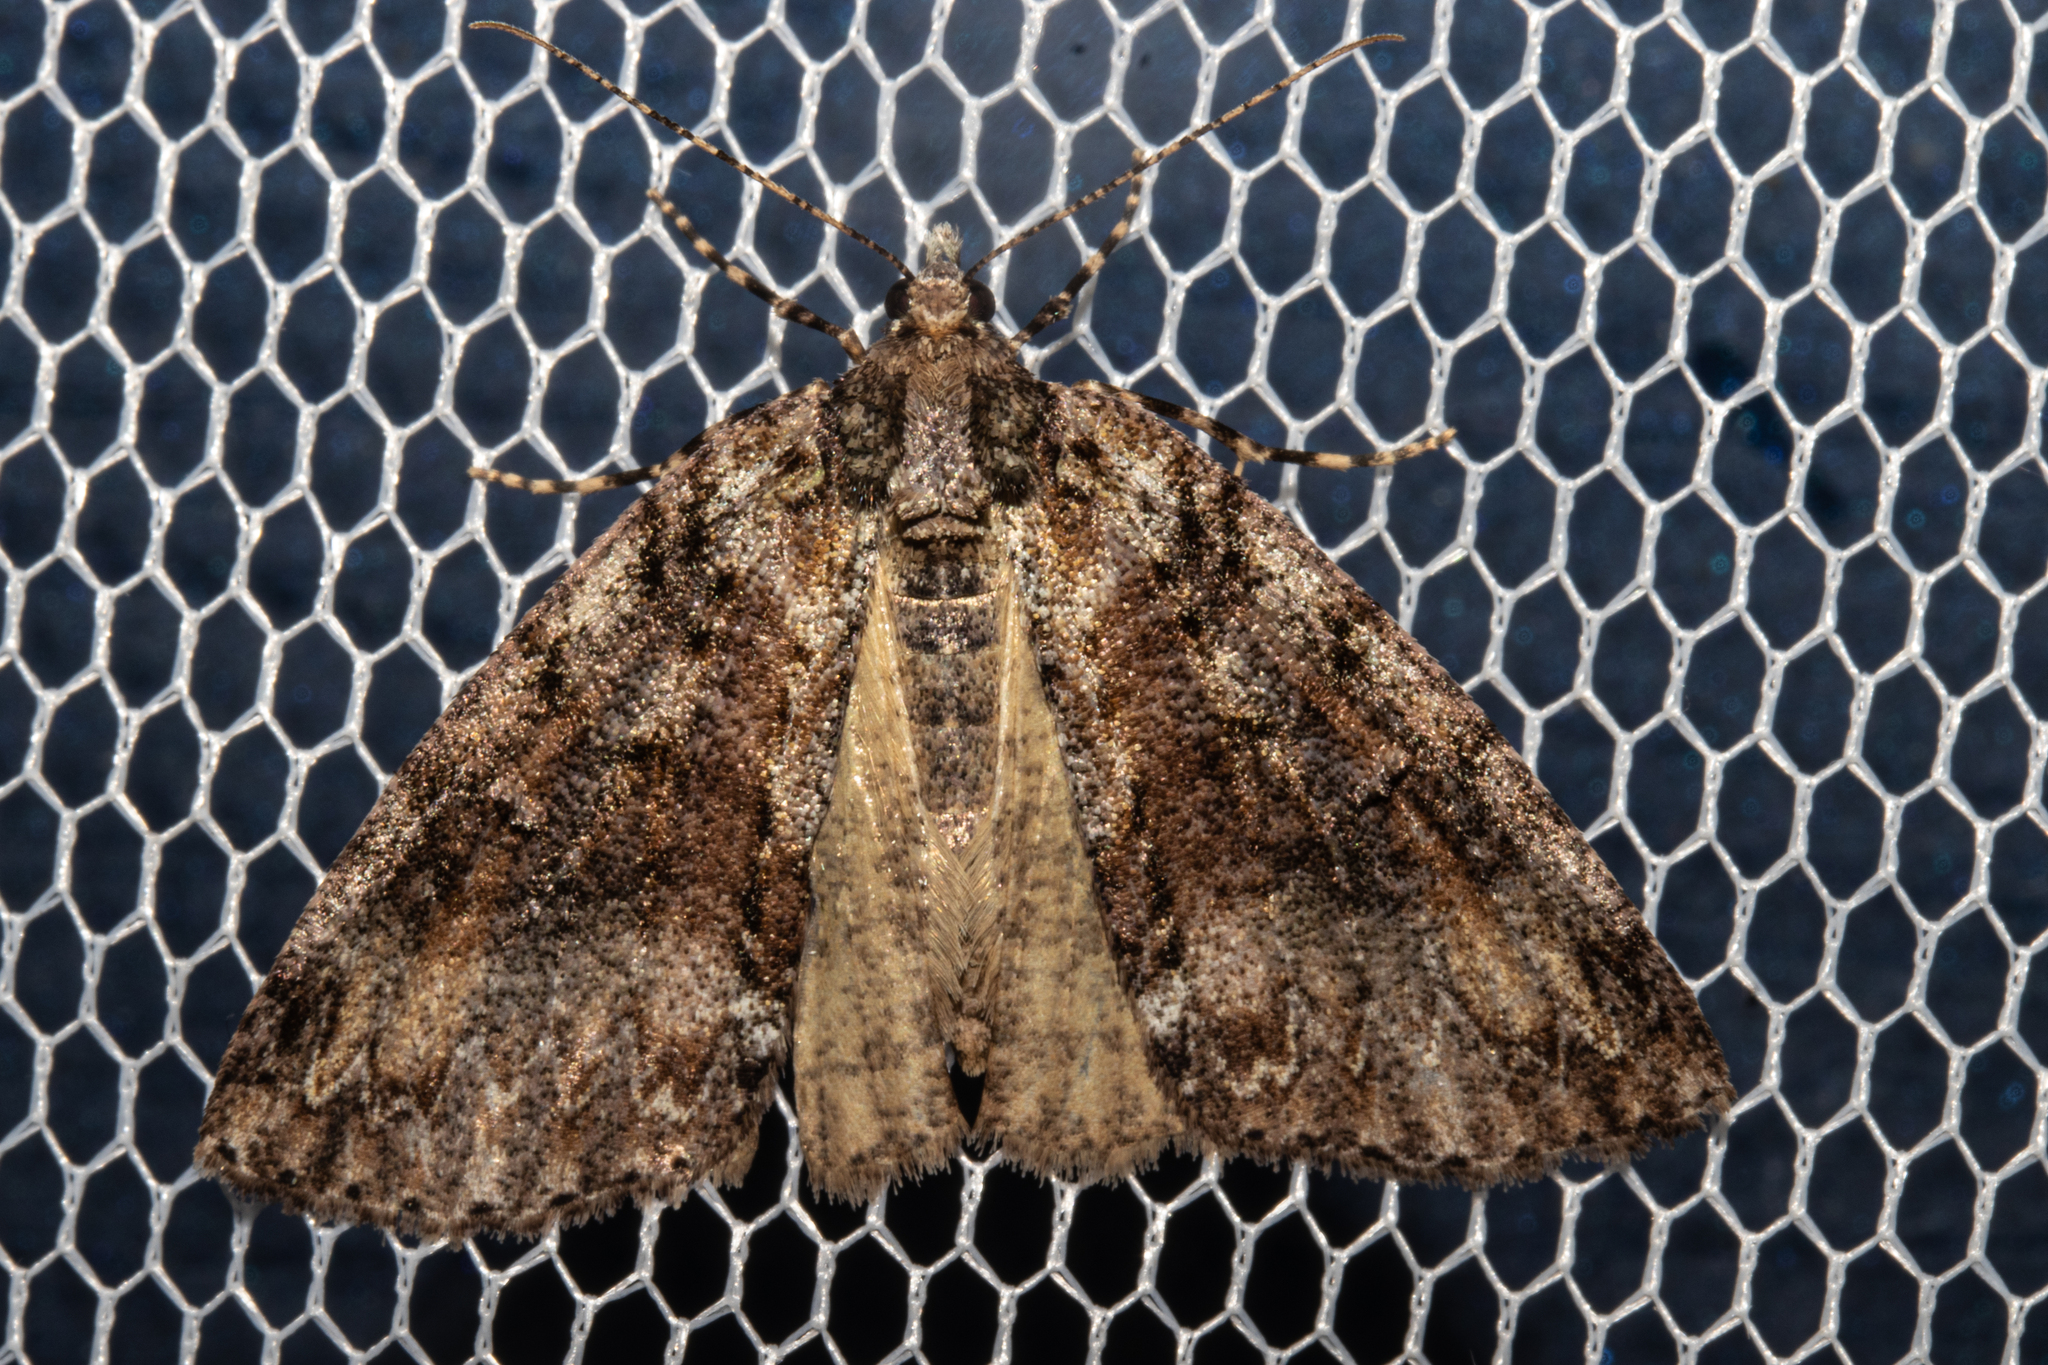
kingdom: Animalia
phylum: Arthropoda
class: Insecta
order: Lepidoptera
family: Geometridae
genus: Pseudocoremia
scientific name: Pseudocoremia suavis
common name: Common forest looper
